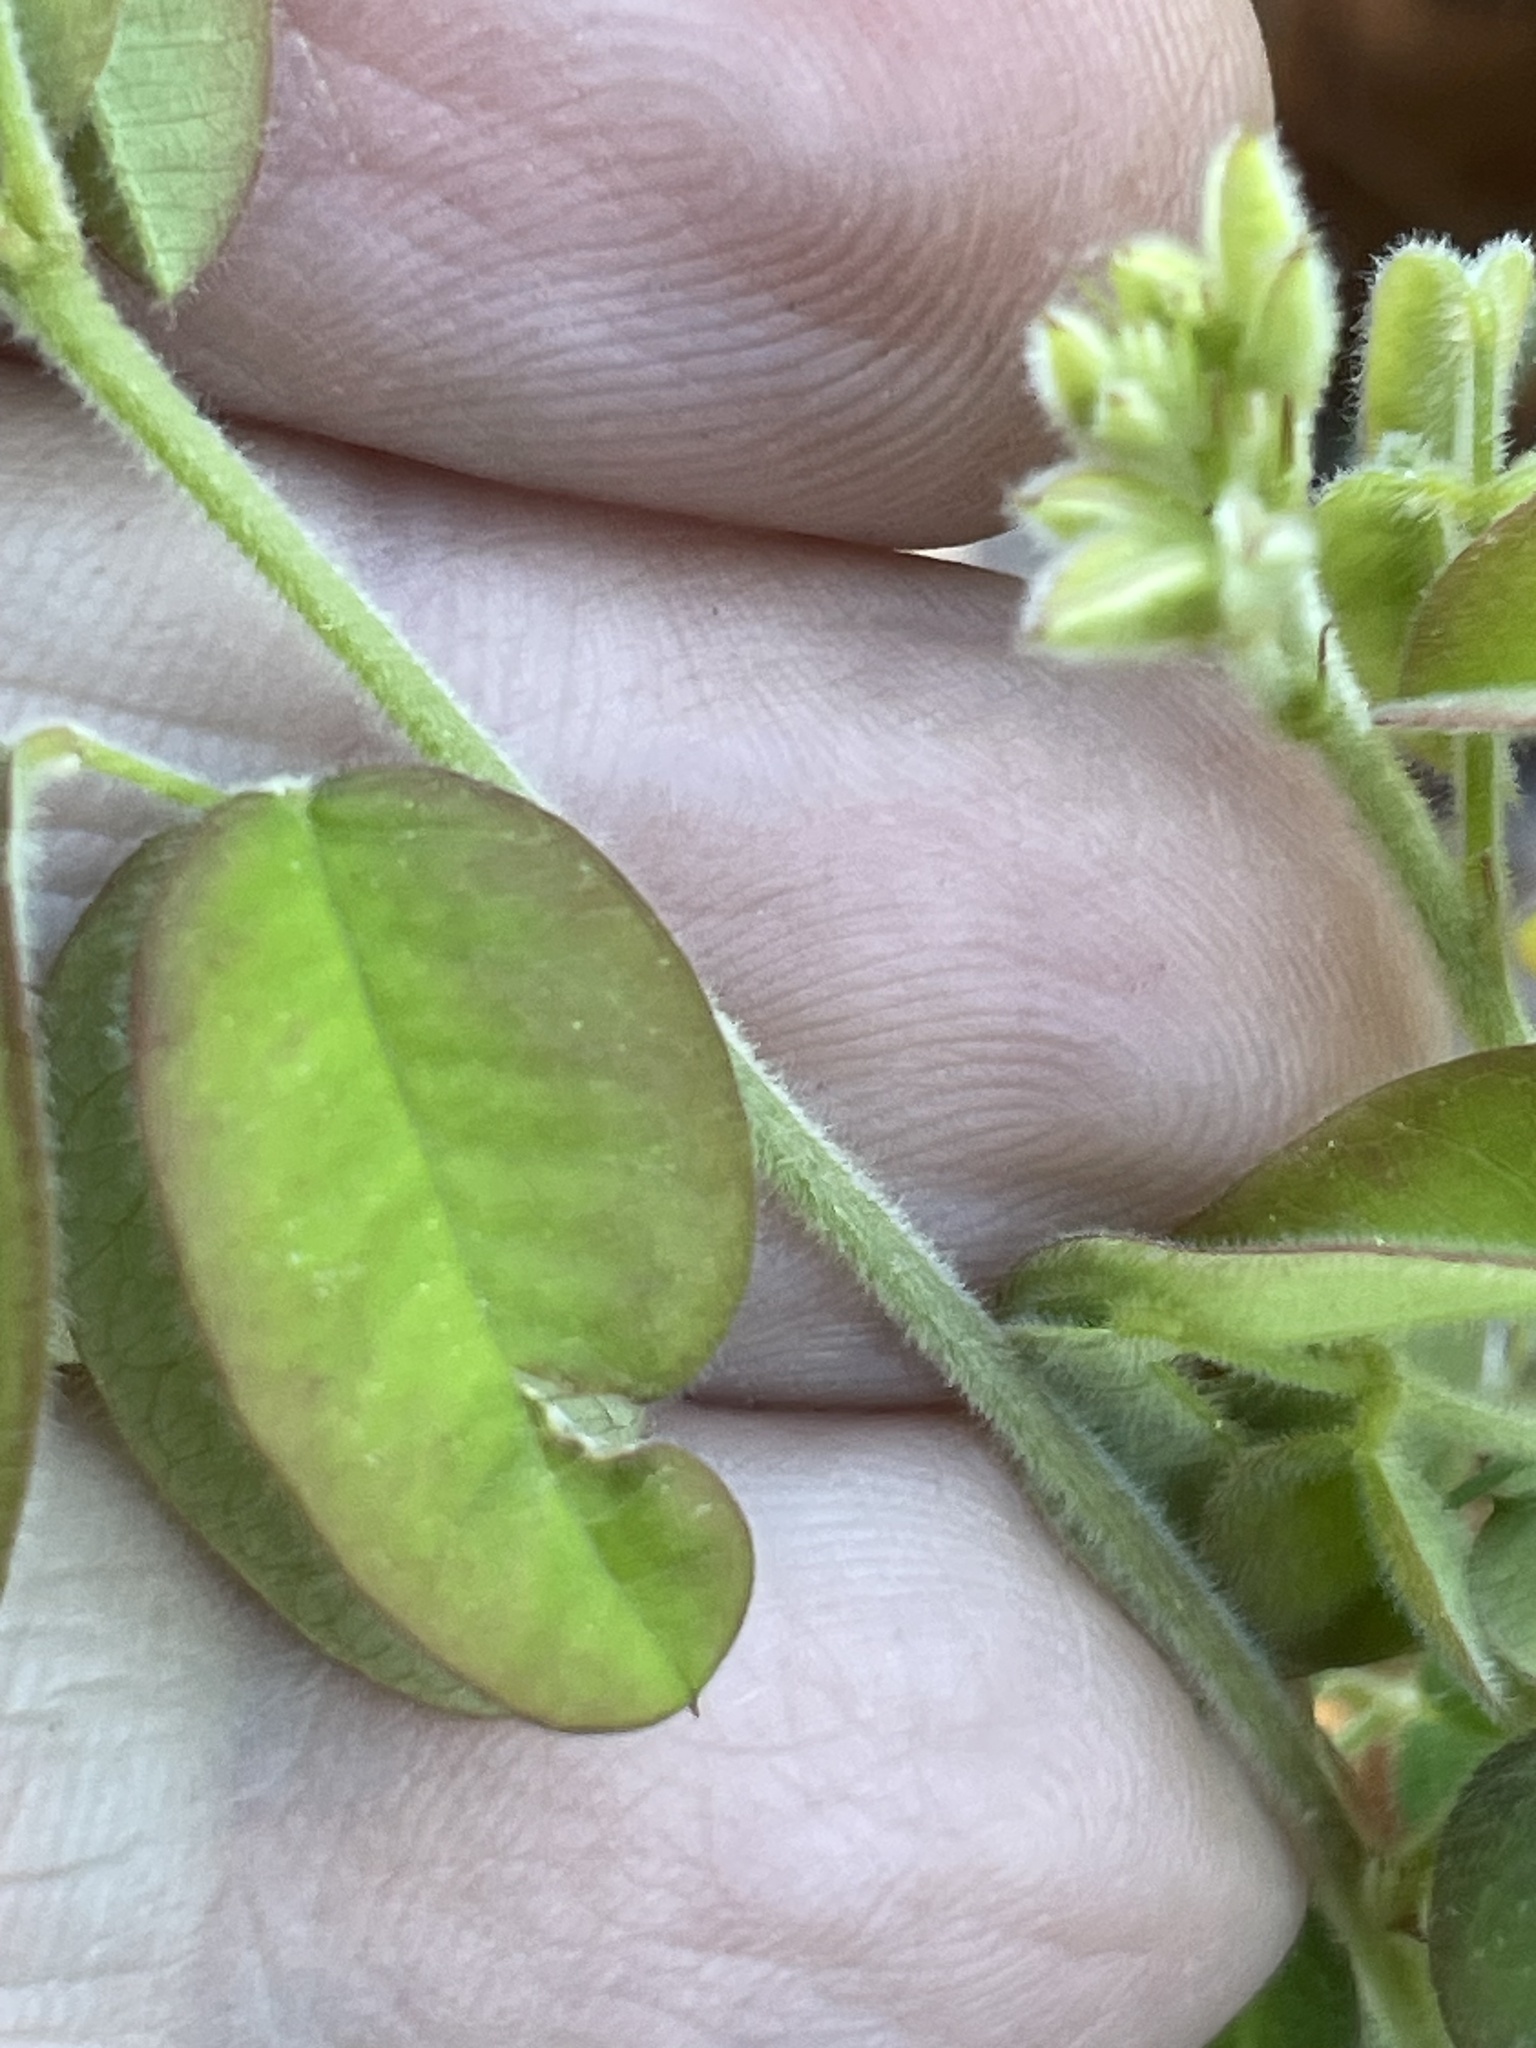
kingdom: Plantae
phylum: Tracheophyta
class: Magnoliopsida
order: Fabales
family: Fabaceae
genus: Lespedeza
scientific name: Lespedeza hirta
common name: Hairy lespedeza
